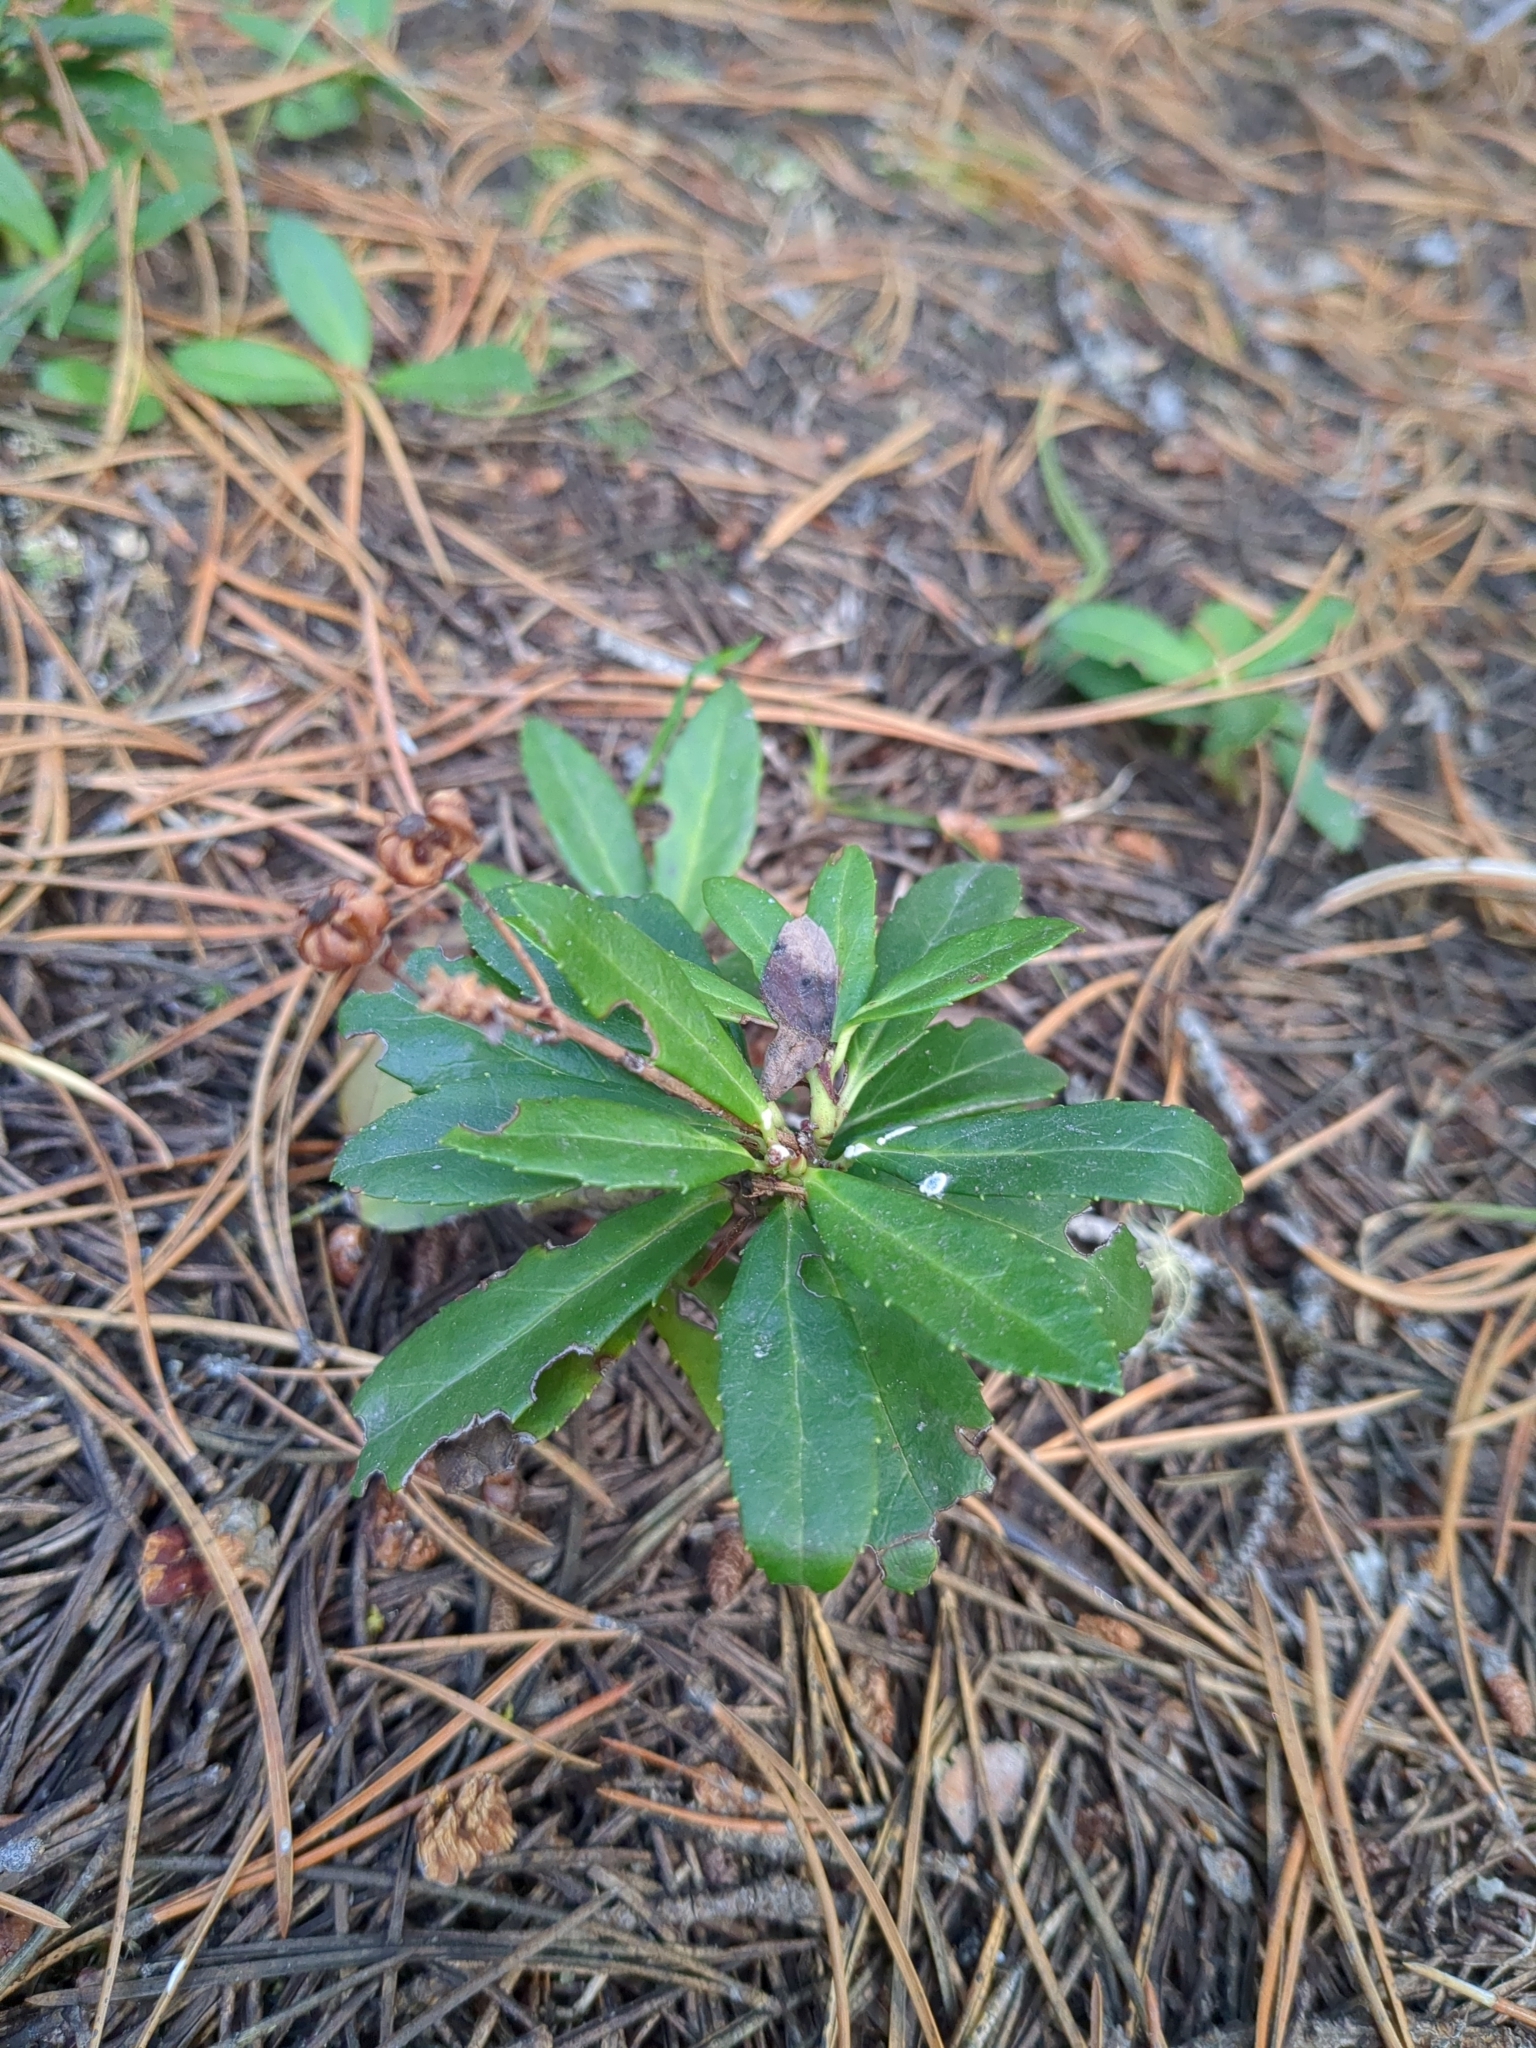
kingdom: Plantae
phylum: Tracheophyta
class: Magnoliopsida
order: Ericales
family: Ericaceae
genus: Chimaphila
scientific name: Chimaphila umbellata
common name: Pipsissewa
